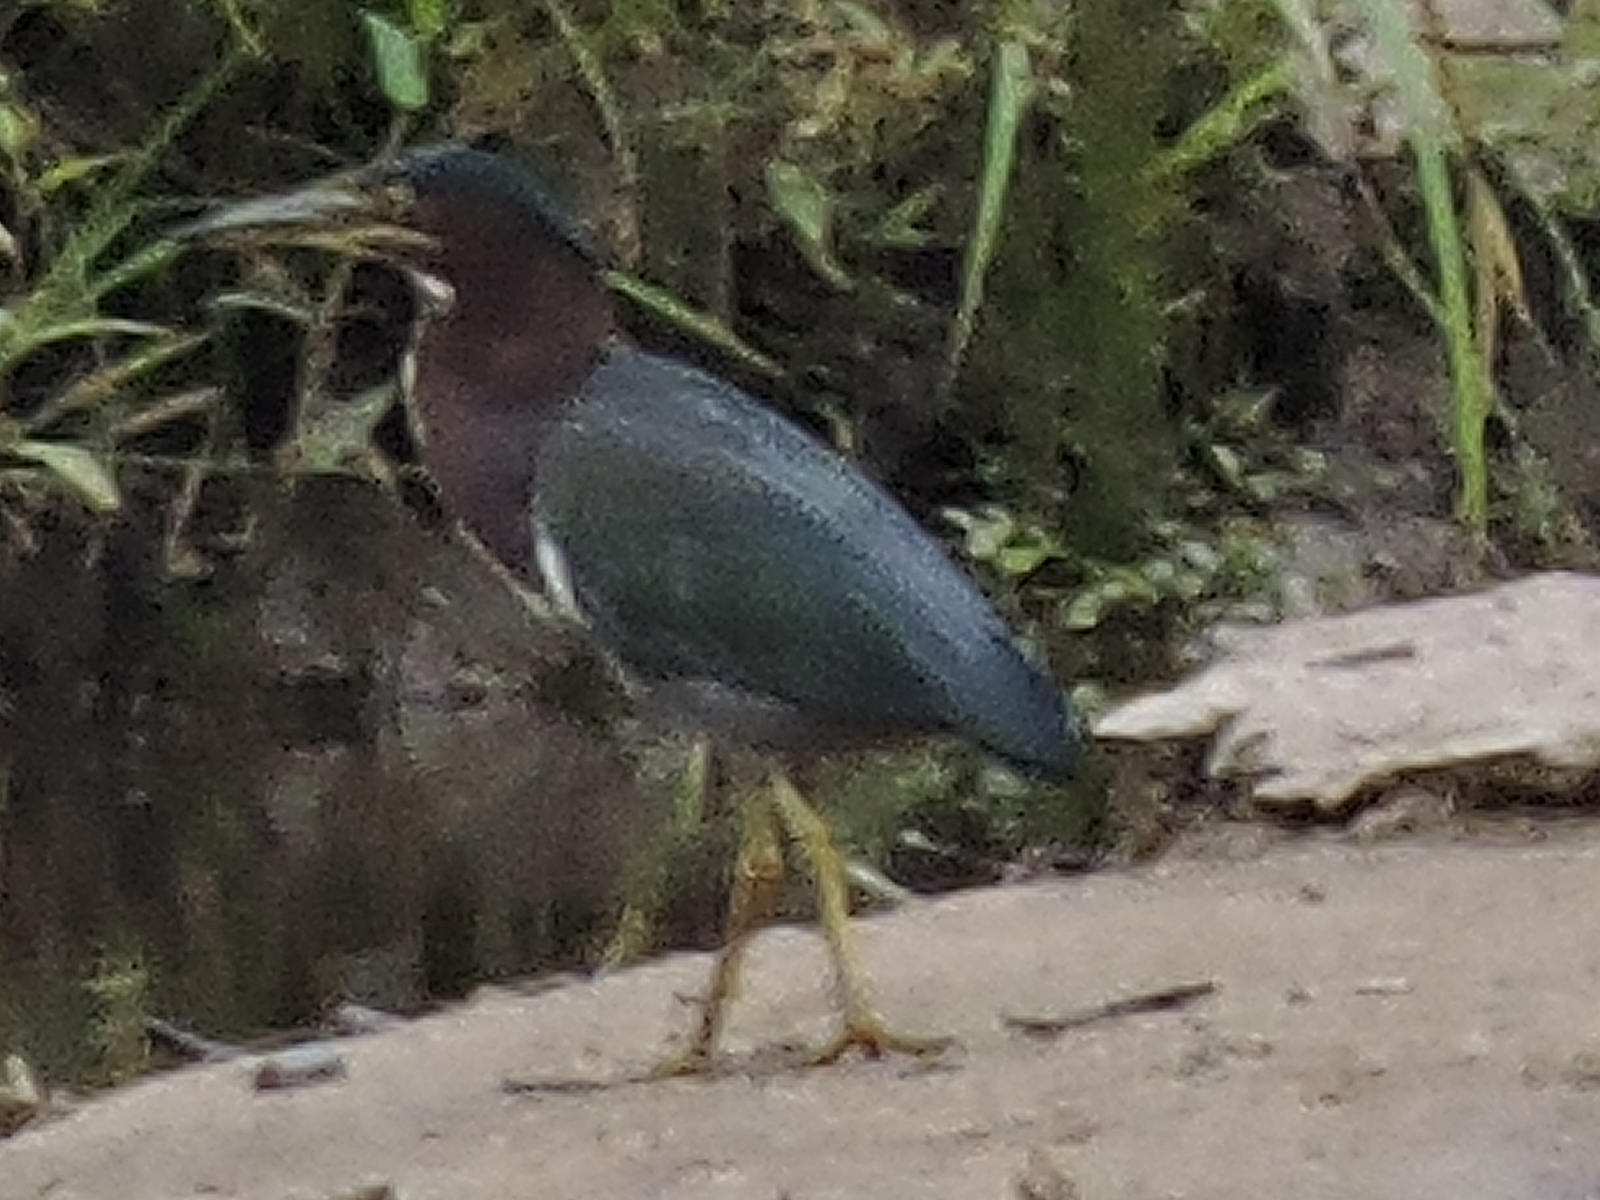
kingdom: Animalia
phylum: Chordata
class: Aves
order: Pelecaniformes
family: Ardeidae
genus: Butorides
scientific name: Butorides virescens
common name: Green heron
